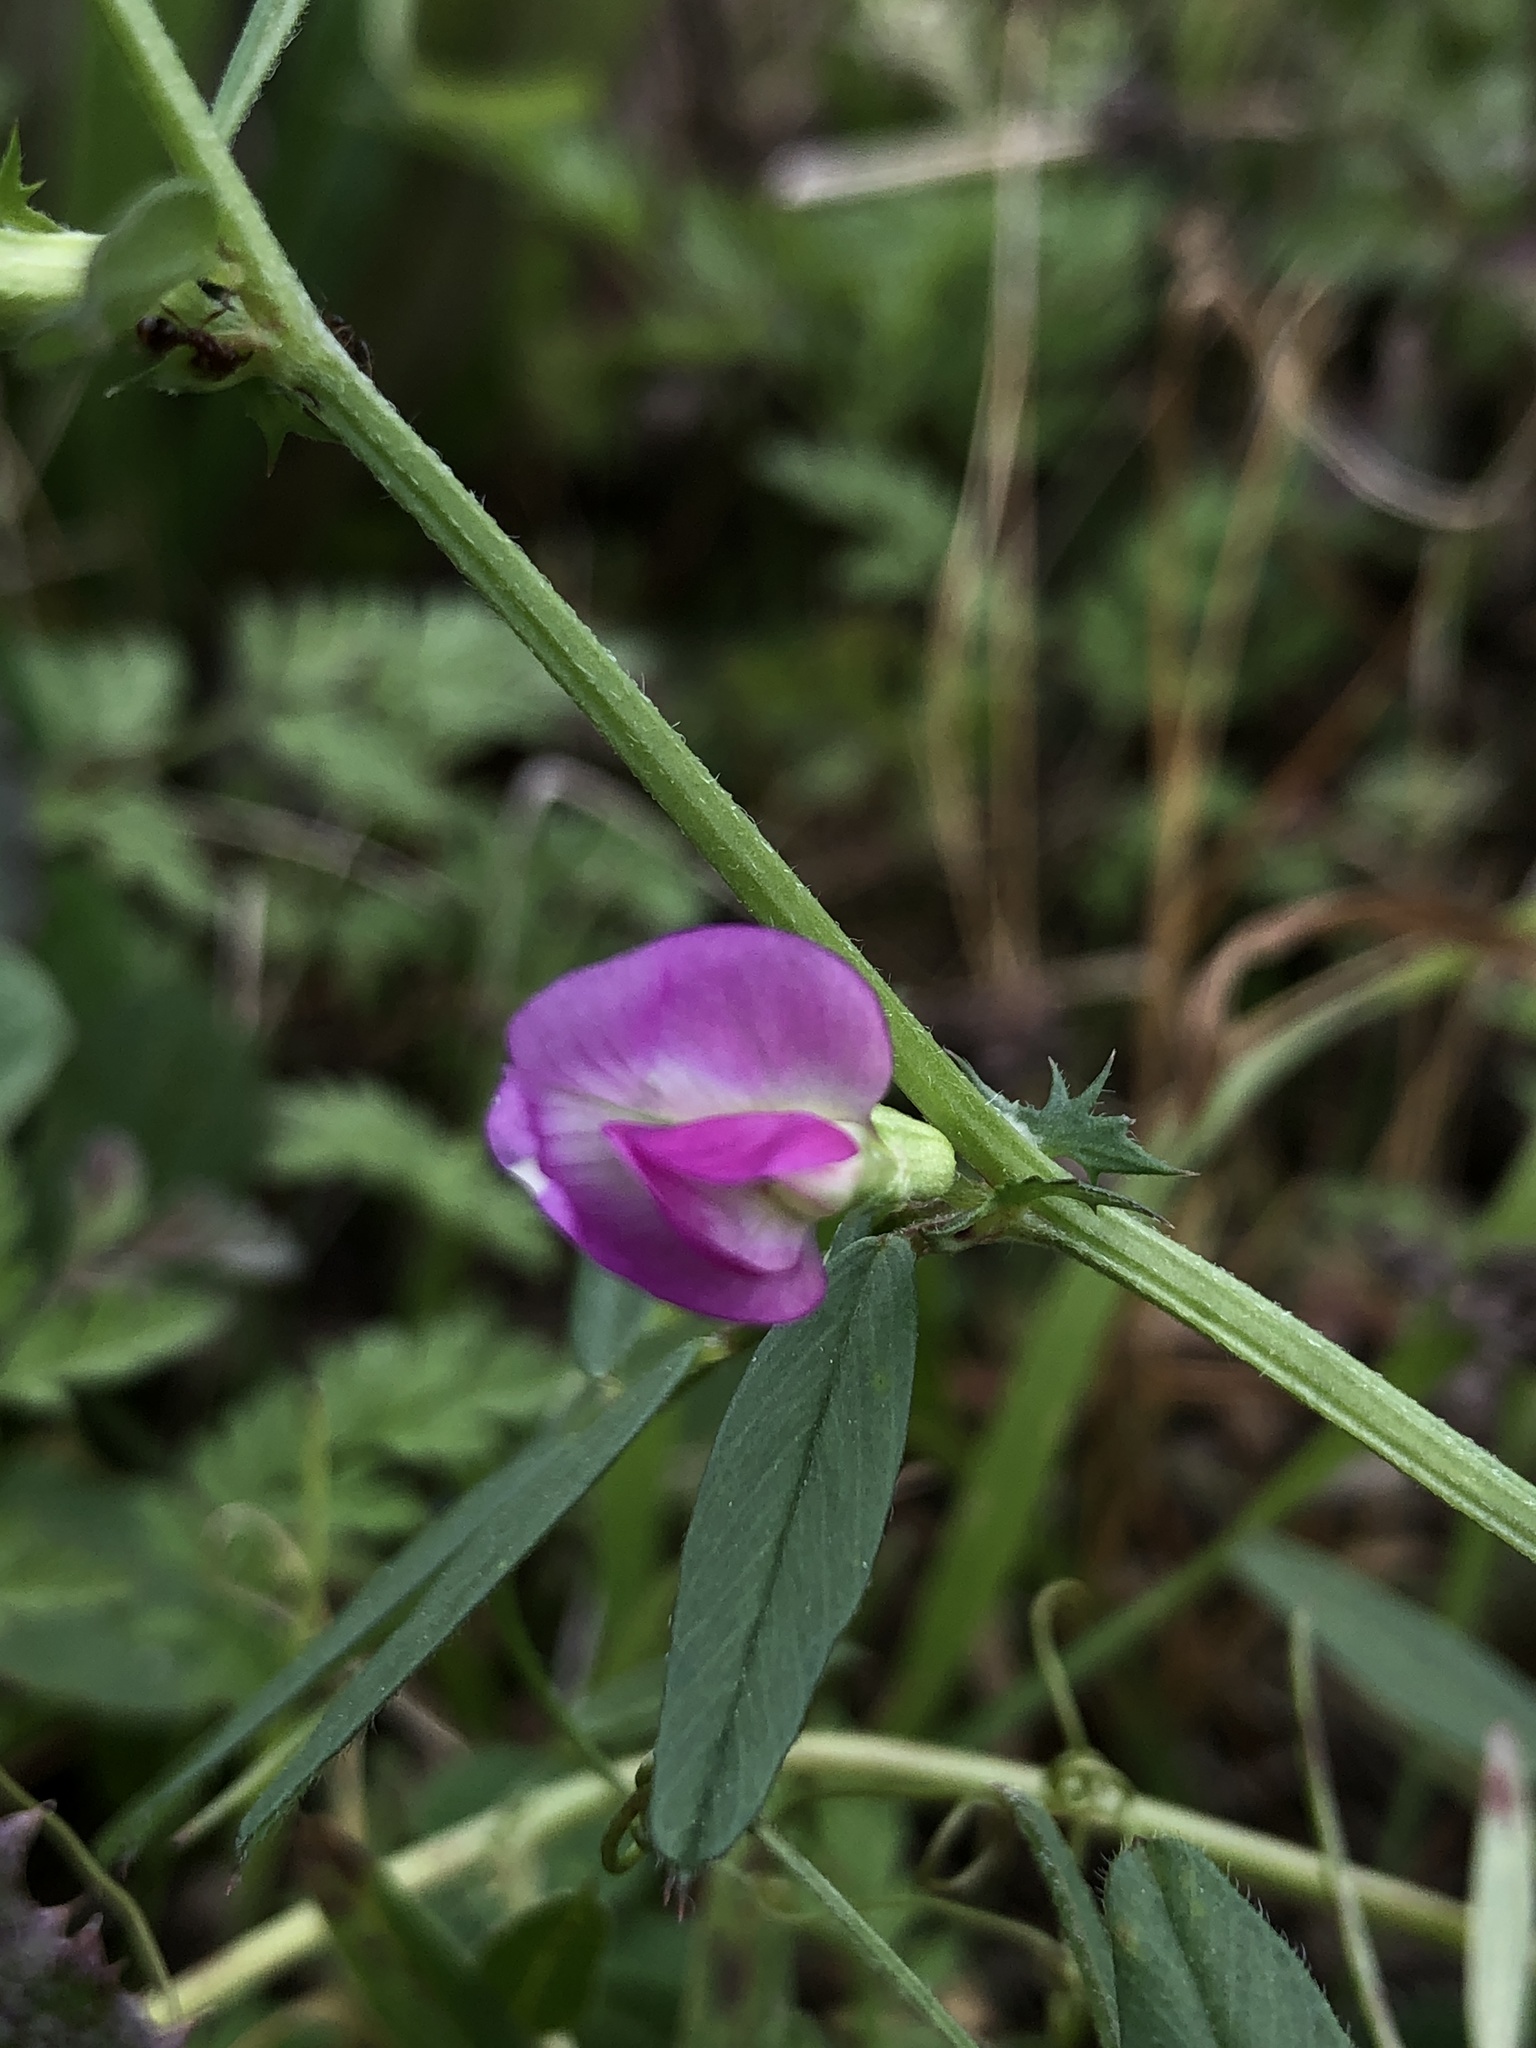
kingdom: Plantae
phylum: Tracheophyta
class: Magnoliopsida
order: Fabales
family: Fabaceae
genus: Vicia
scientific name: Vicia sativa
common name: Garden vetch
